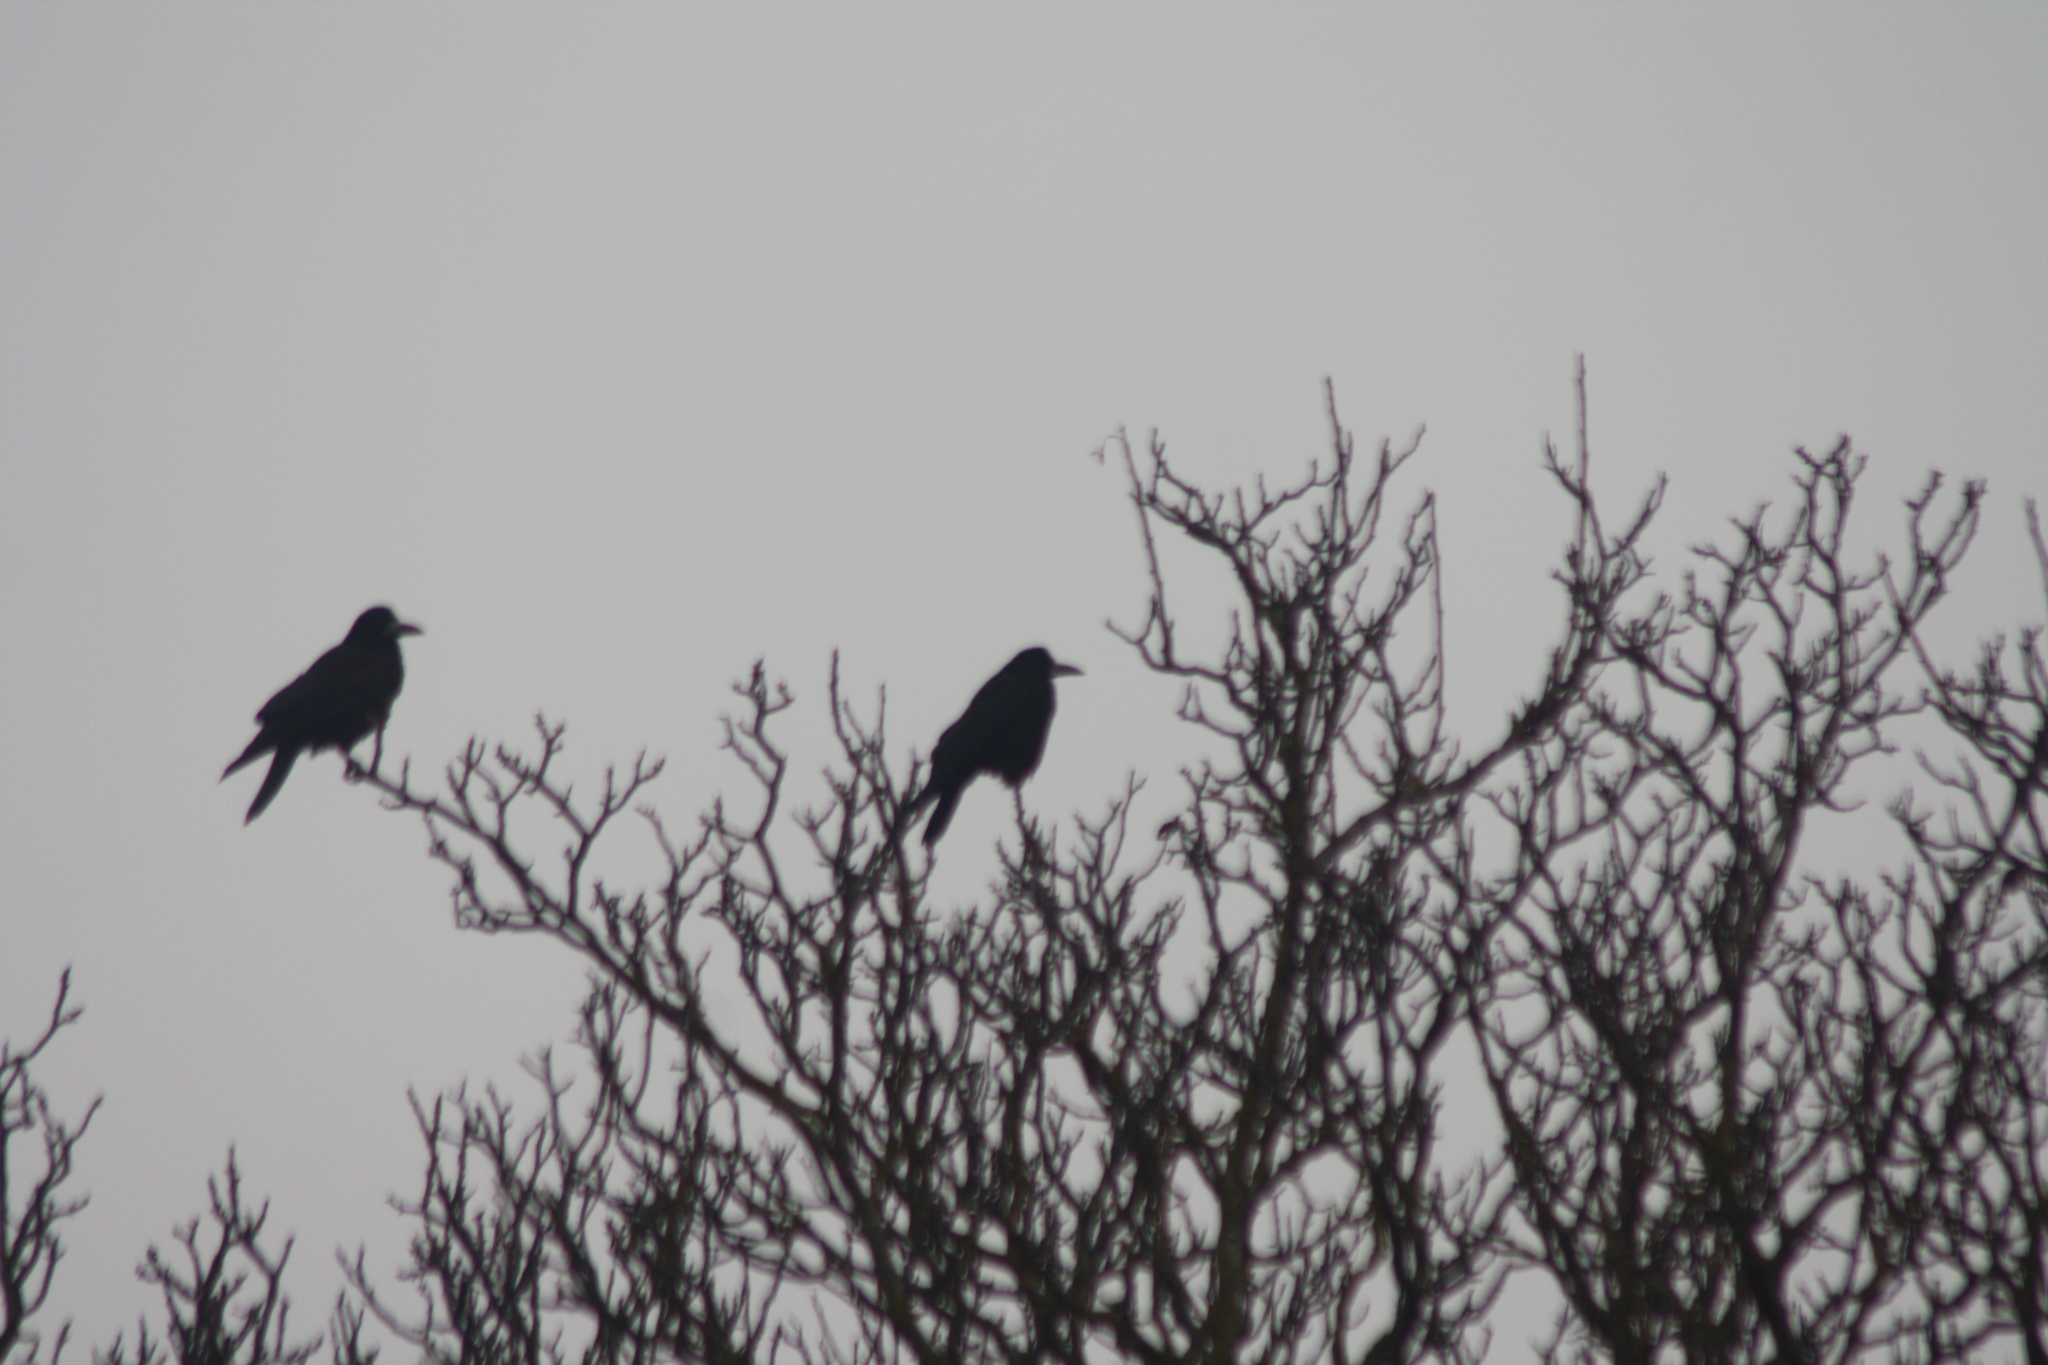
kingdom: Animalia
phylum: Chordata
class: Aves
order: Passeriformes
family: Corvidae
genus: Corvus
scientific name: Corvus frugilegus
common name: Rook
